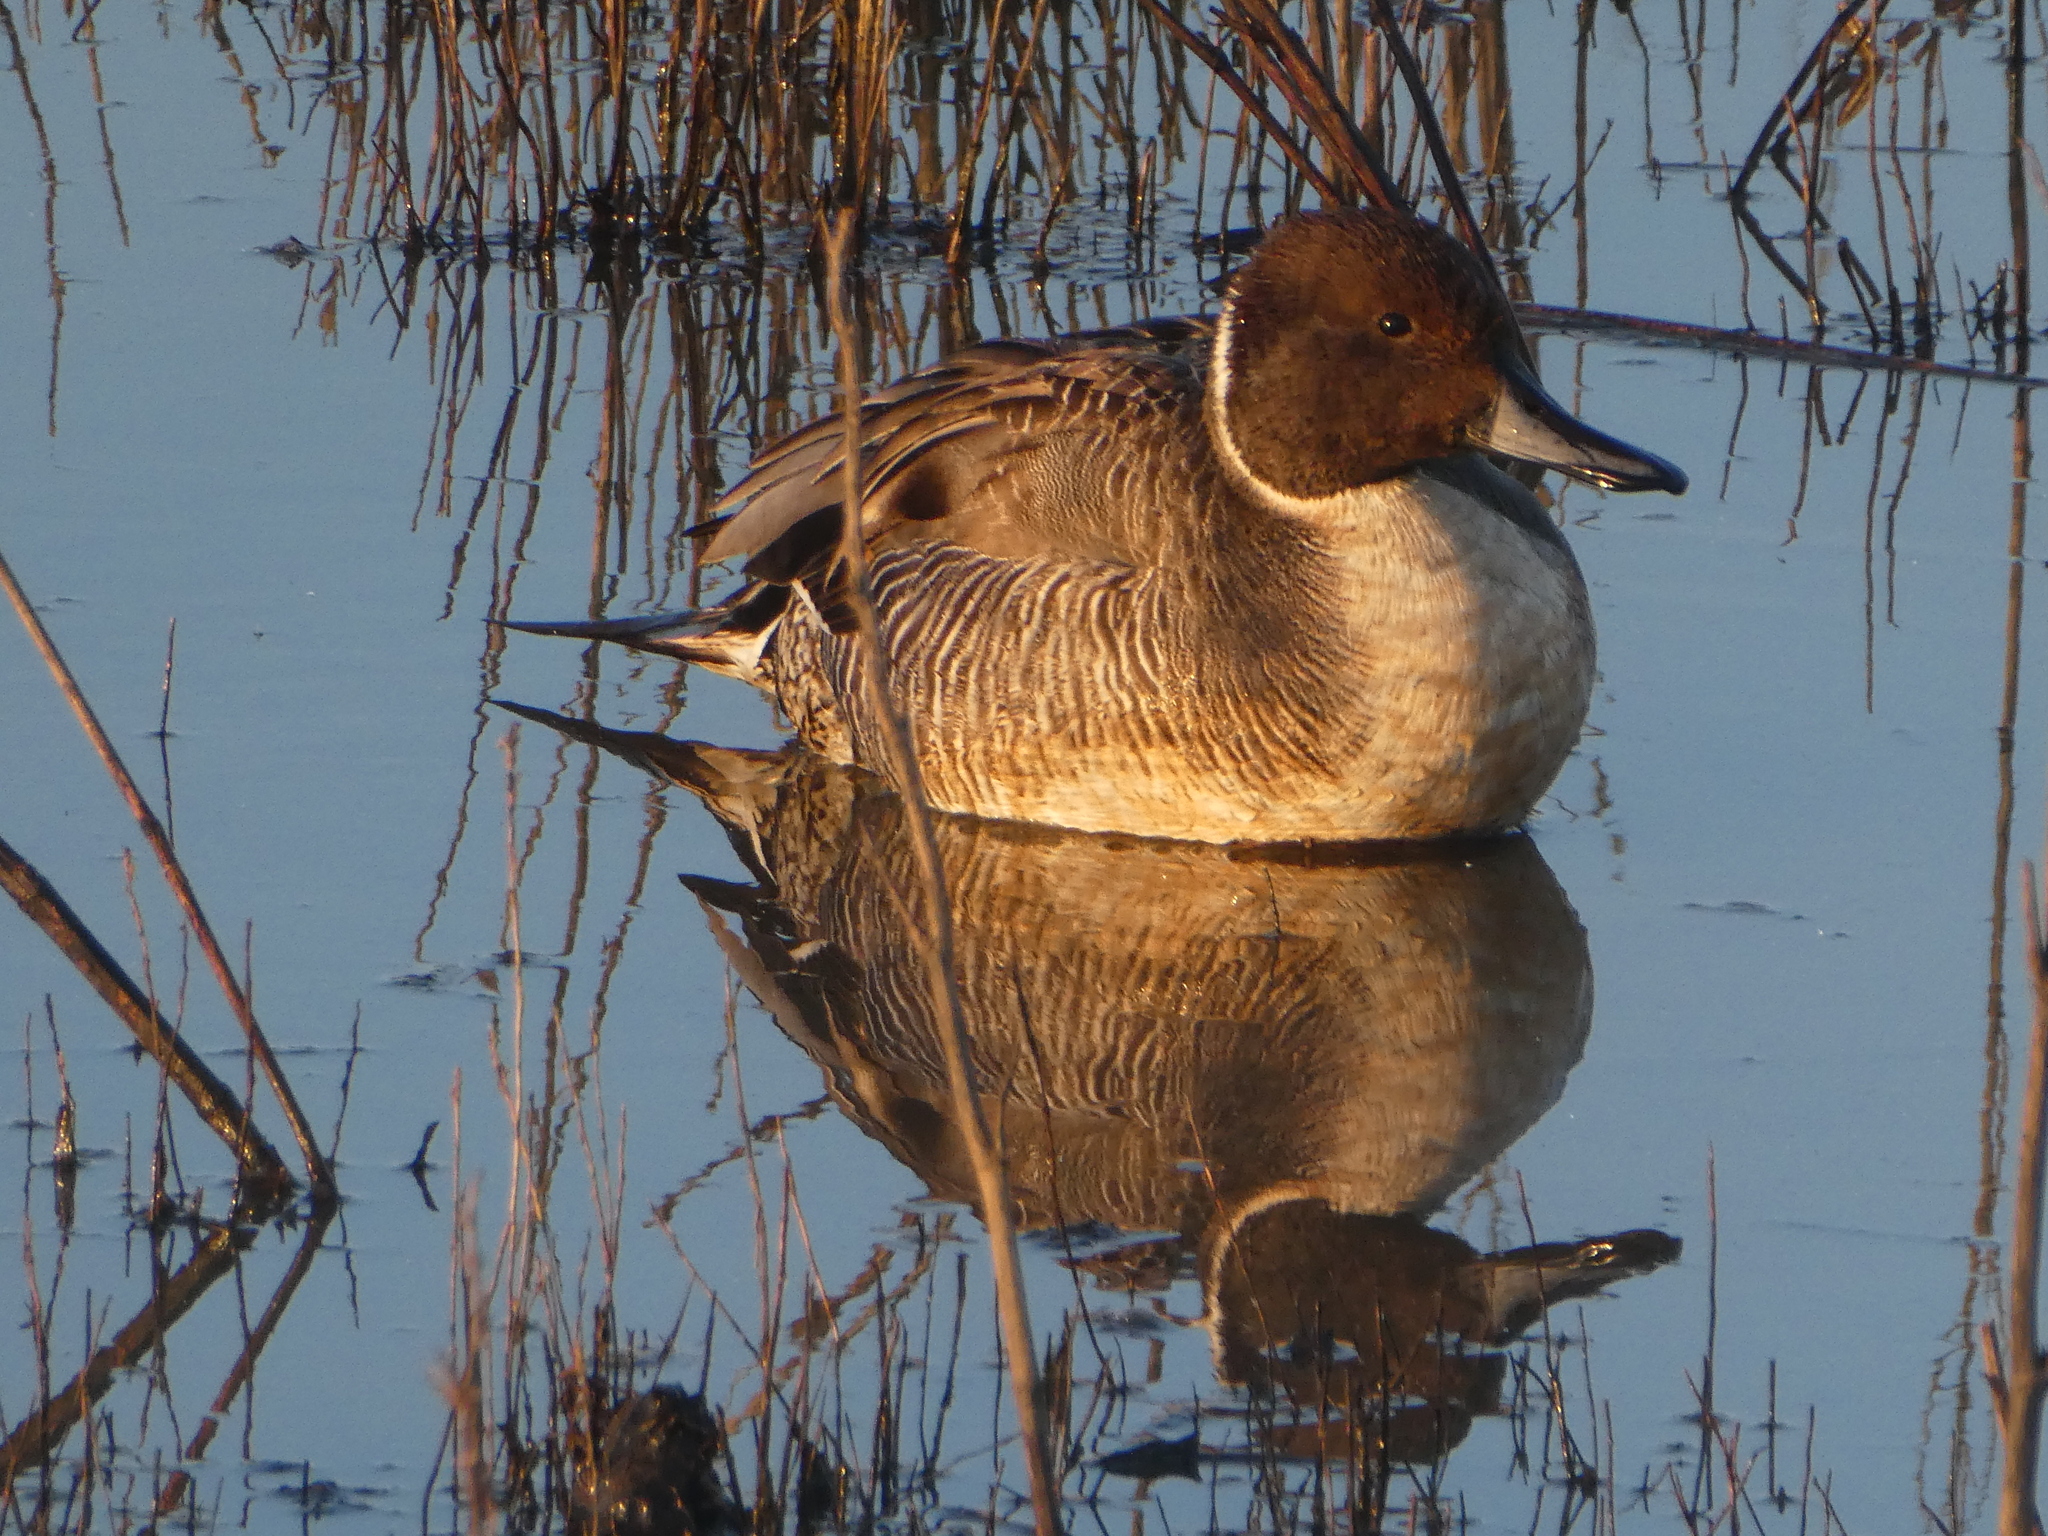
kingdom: Animalia
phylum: Chordata
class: Aves
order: Anseriformes
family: Anatidae
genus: Anas
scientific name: Anas acuta
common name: Northern pintail
